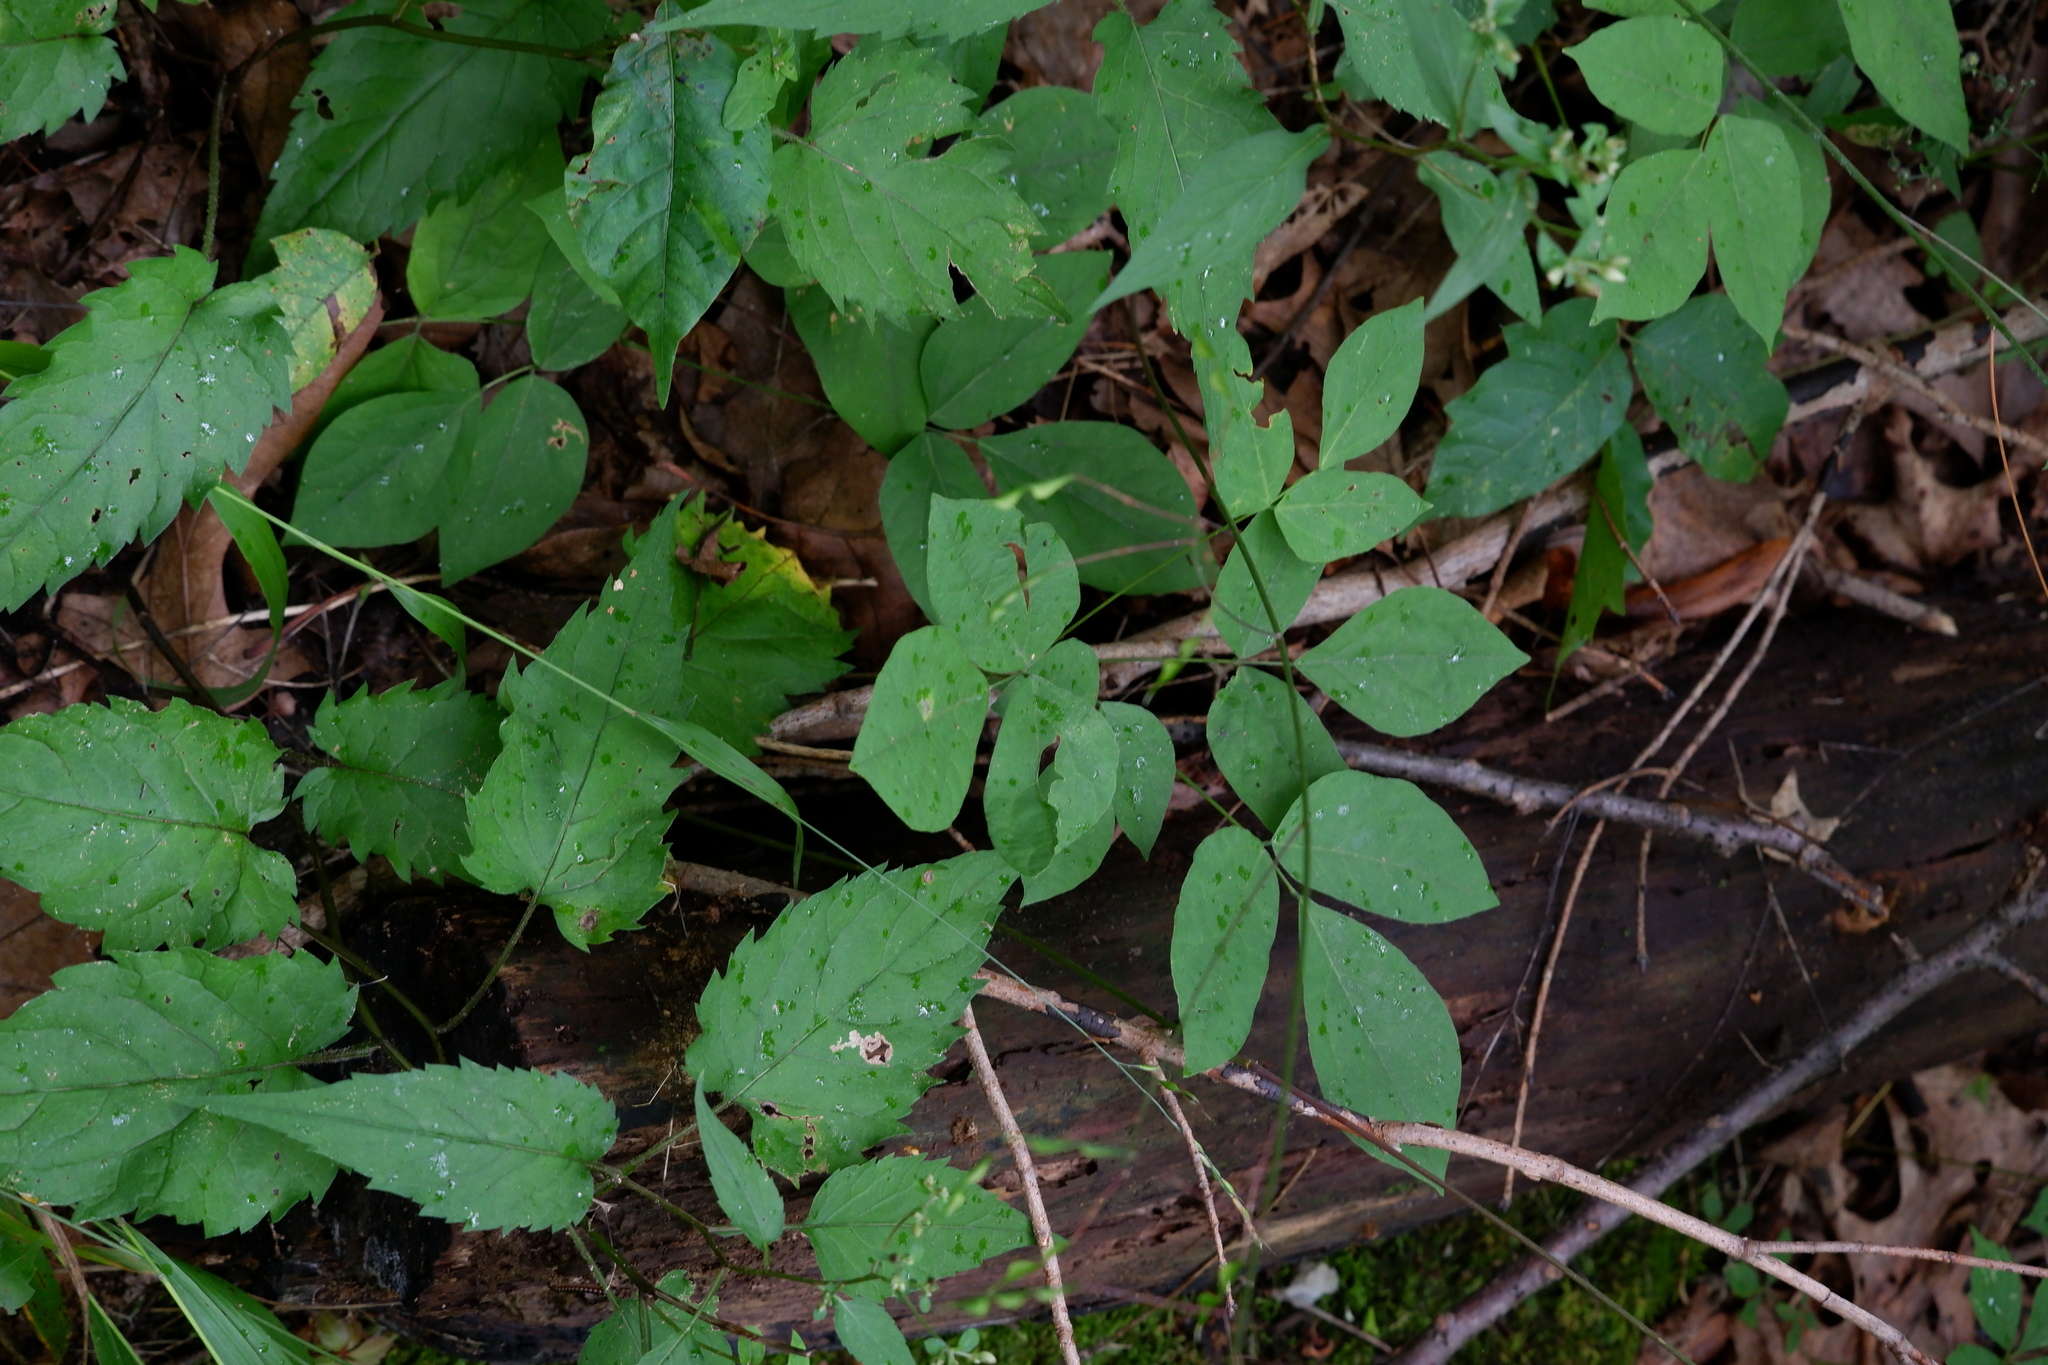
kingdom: Plantae
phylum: Tracheophyta
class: Magnoliopsida
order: Fabales
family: Fabaceae
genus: Hylodesmum
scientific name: Hylodesmum nudiflorum
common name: Bare-stemmed tick-trefoil
